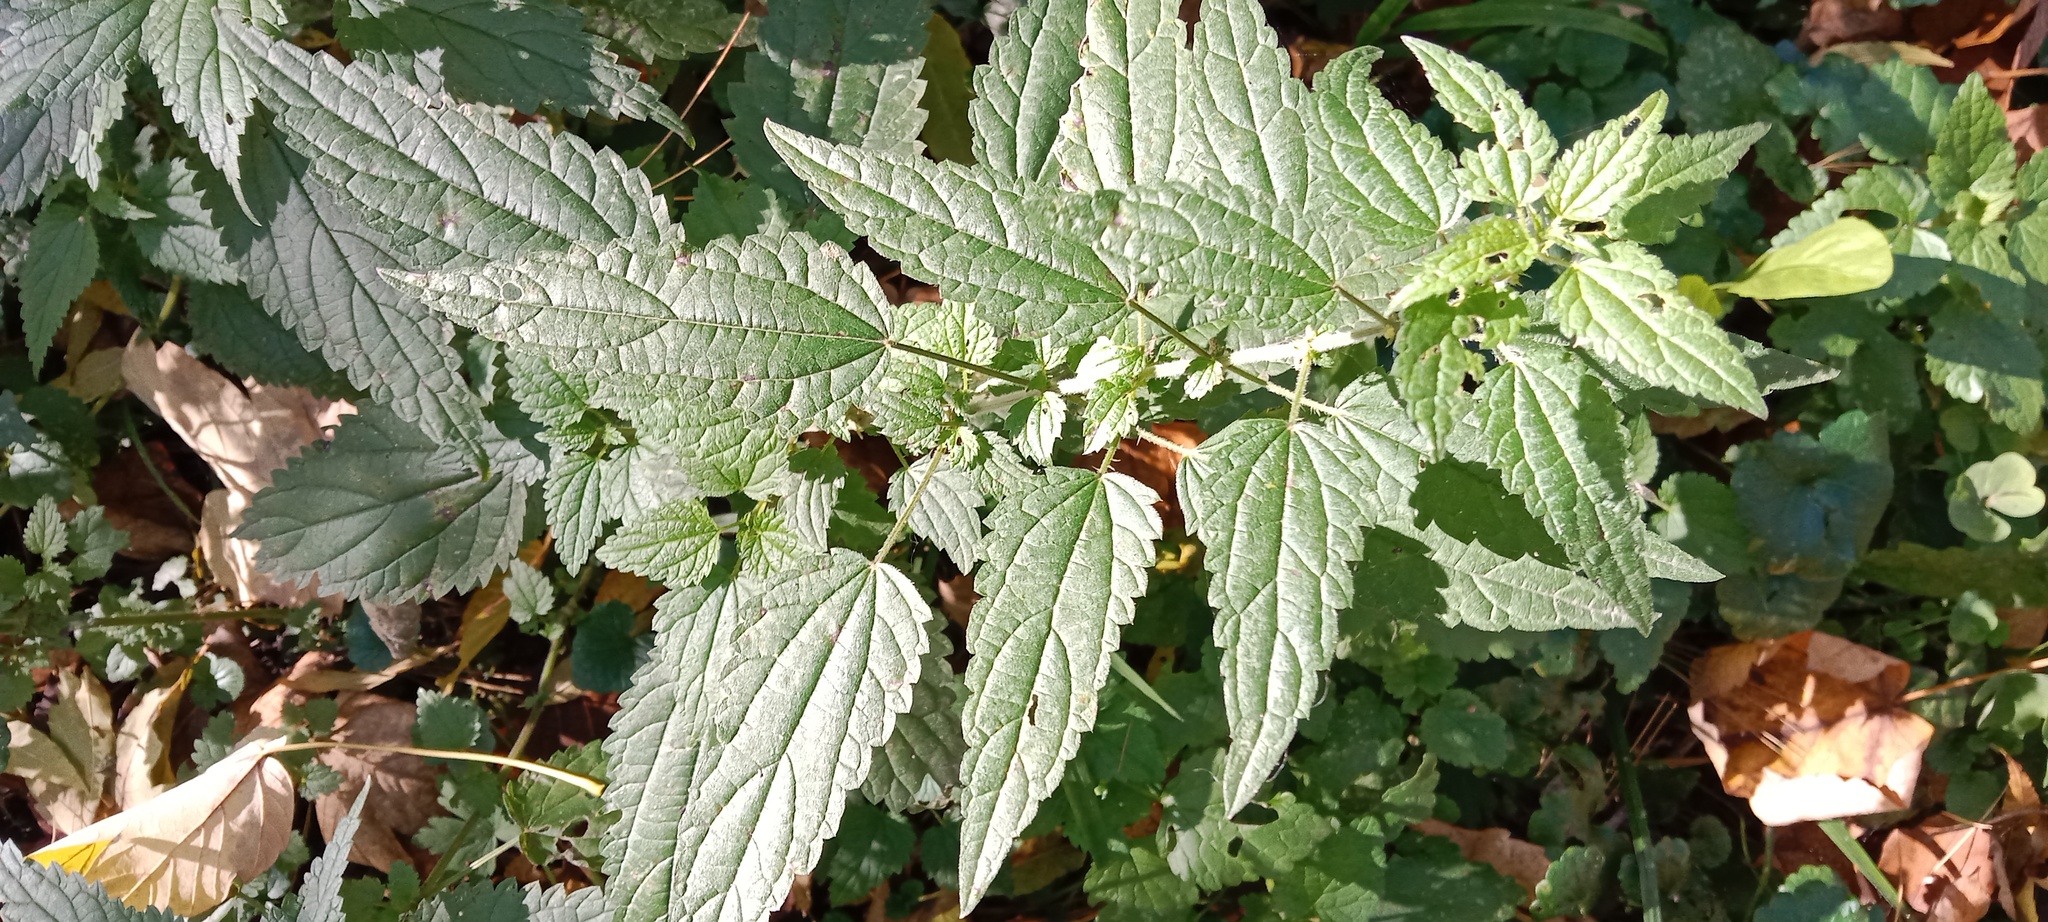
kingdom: Plantae
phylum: Tracheophyta
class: Magnoliopsida
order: Rosales
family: Urticaceae
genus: Urtica
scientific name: Urtica dioica
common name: Common nettle
